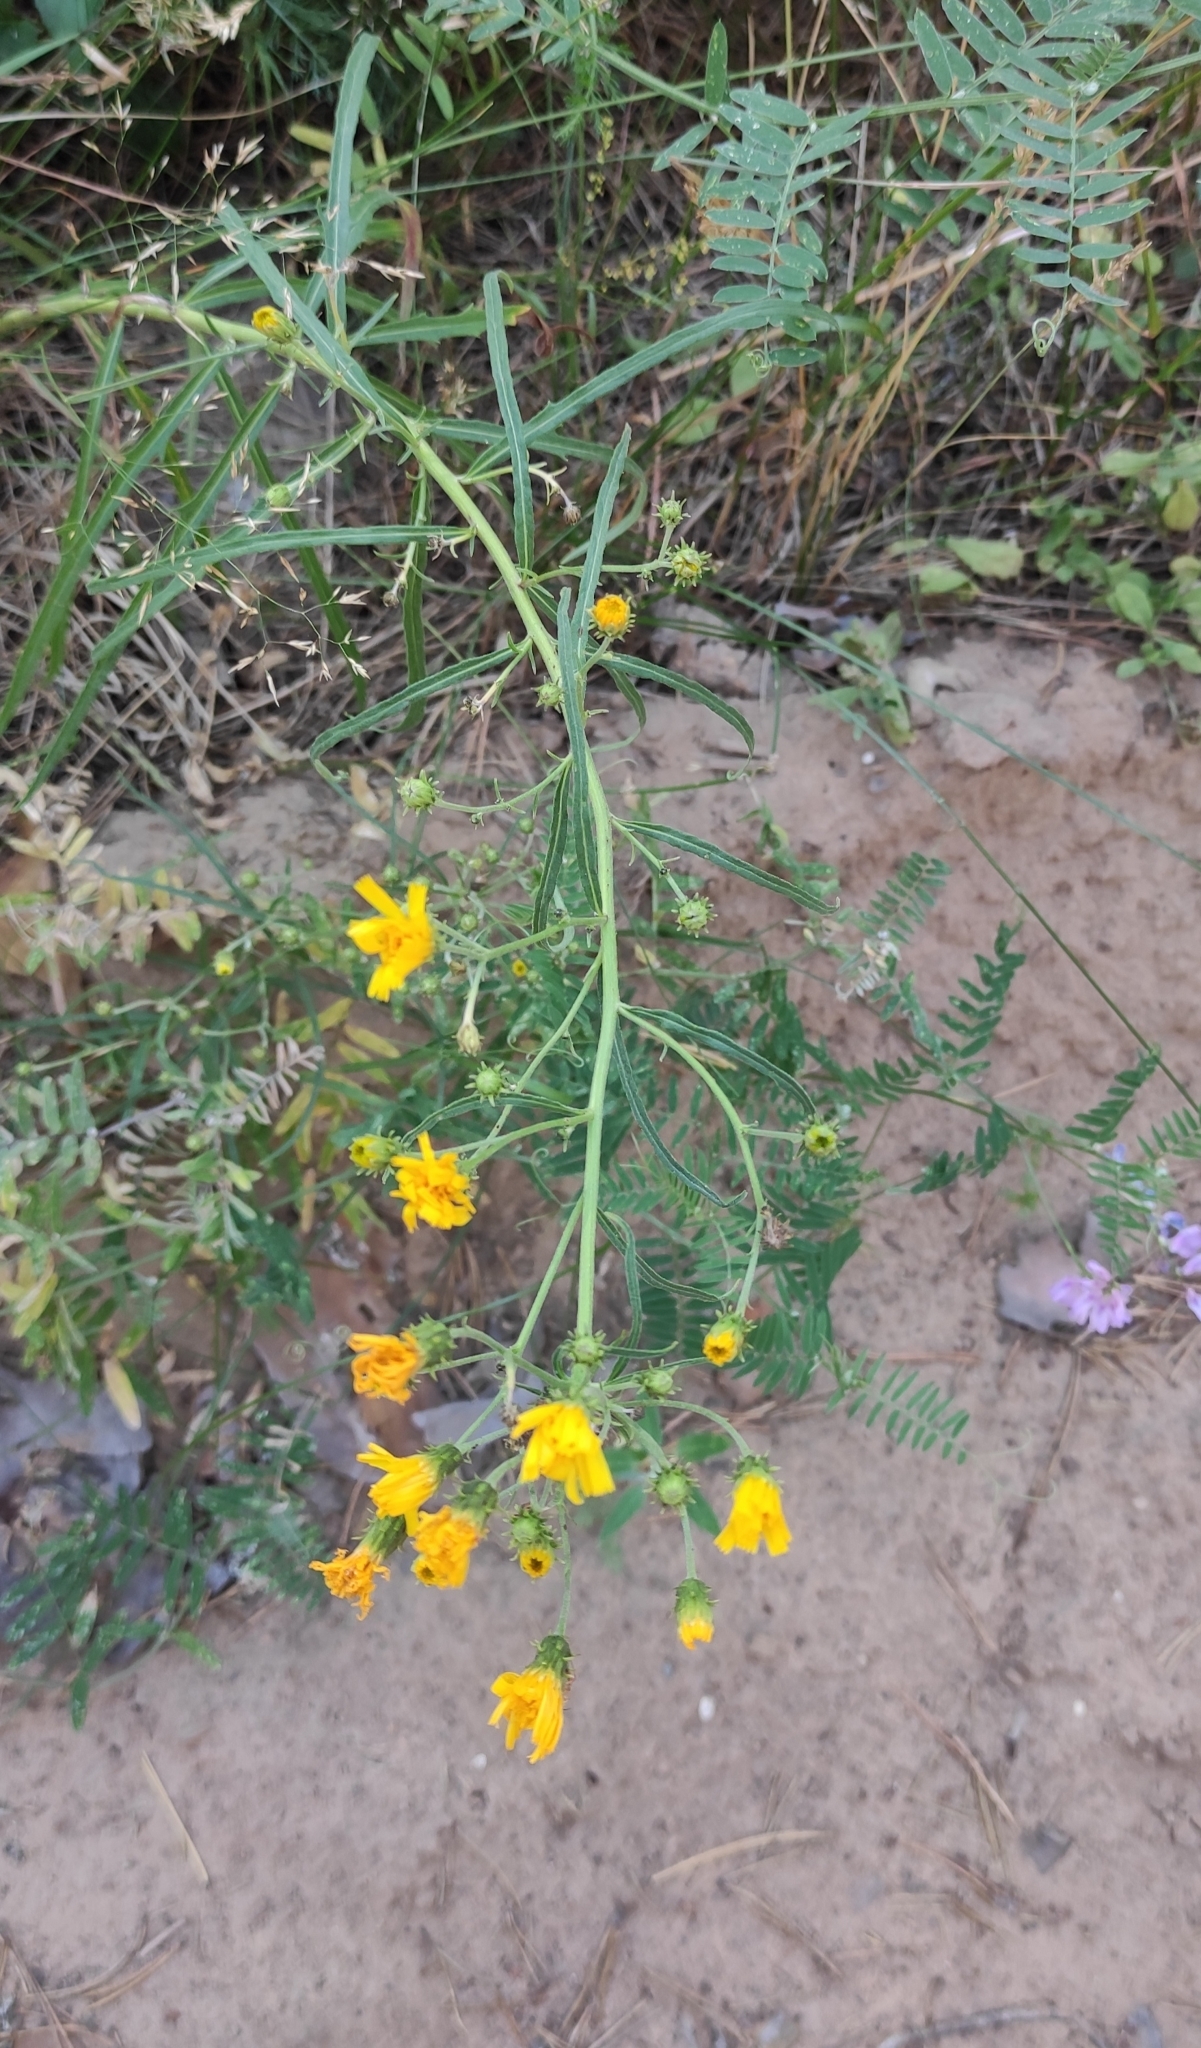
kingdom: Plantae
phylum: Tracheophyta
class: Magnoliopsida
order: Asterales
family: Asteraceae
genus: Hieracium
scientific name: Hieracium umbellatum
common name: Northern hawkweed
